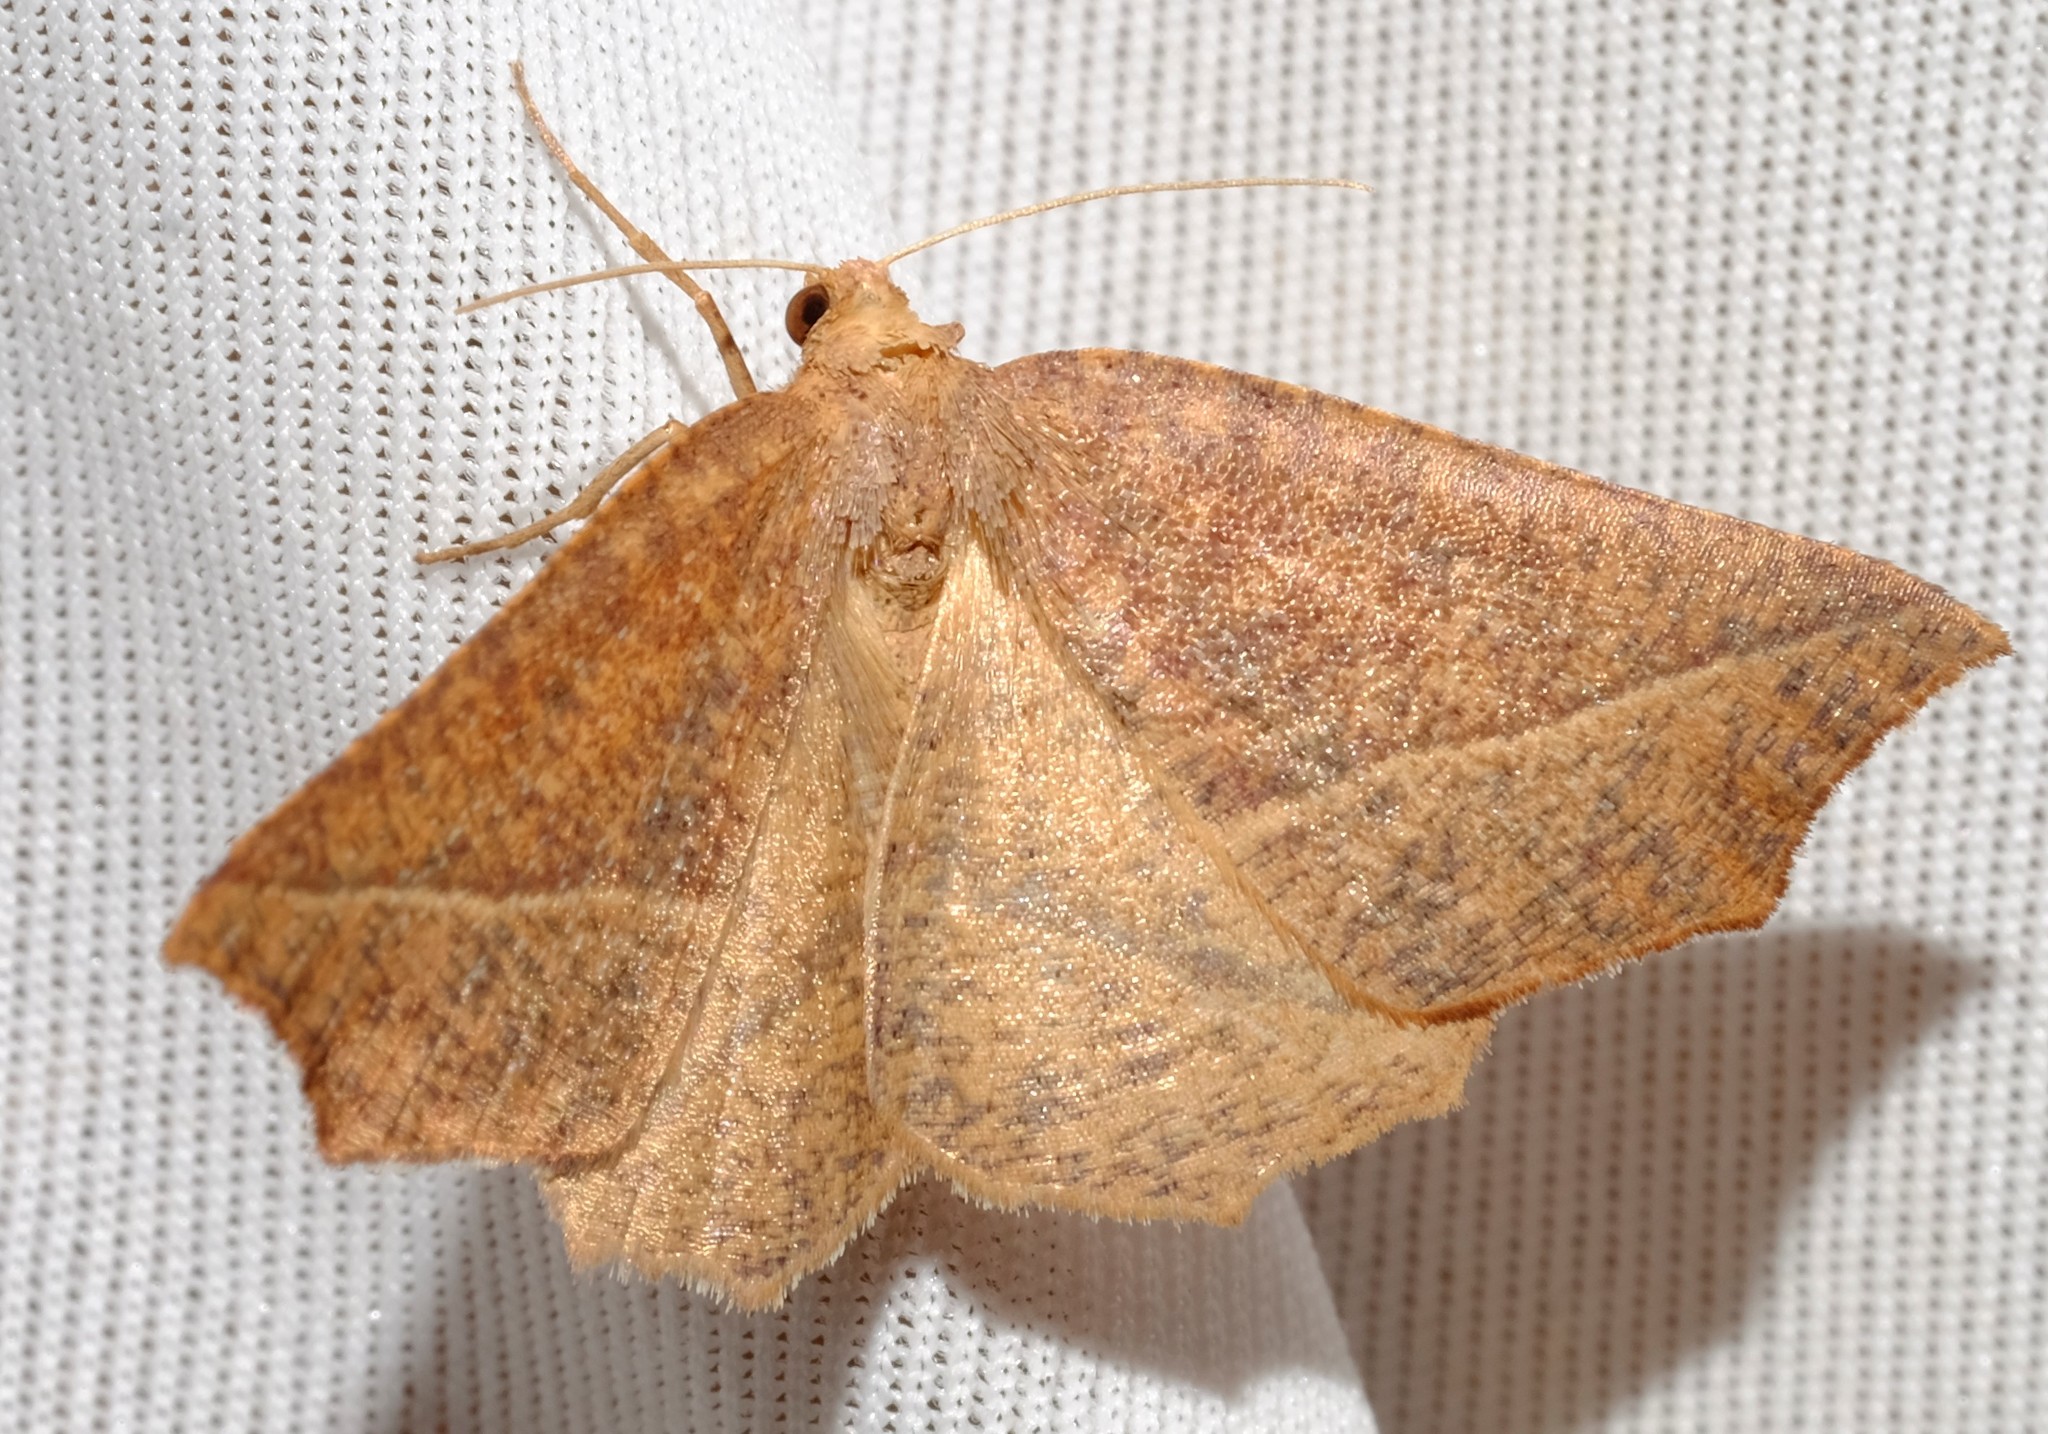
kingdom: Animalia
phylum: Arthropoda
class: Insecta
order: Lepidoptera
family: Geometridae
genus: Microsema
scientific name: Microsema
